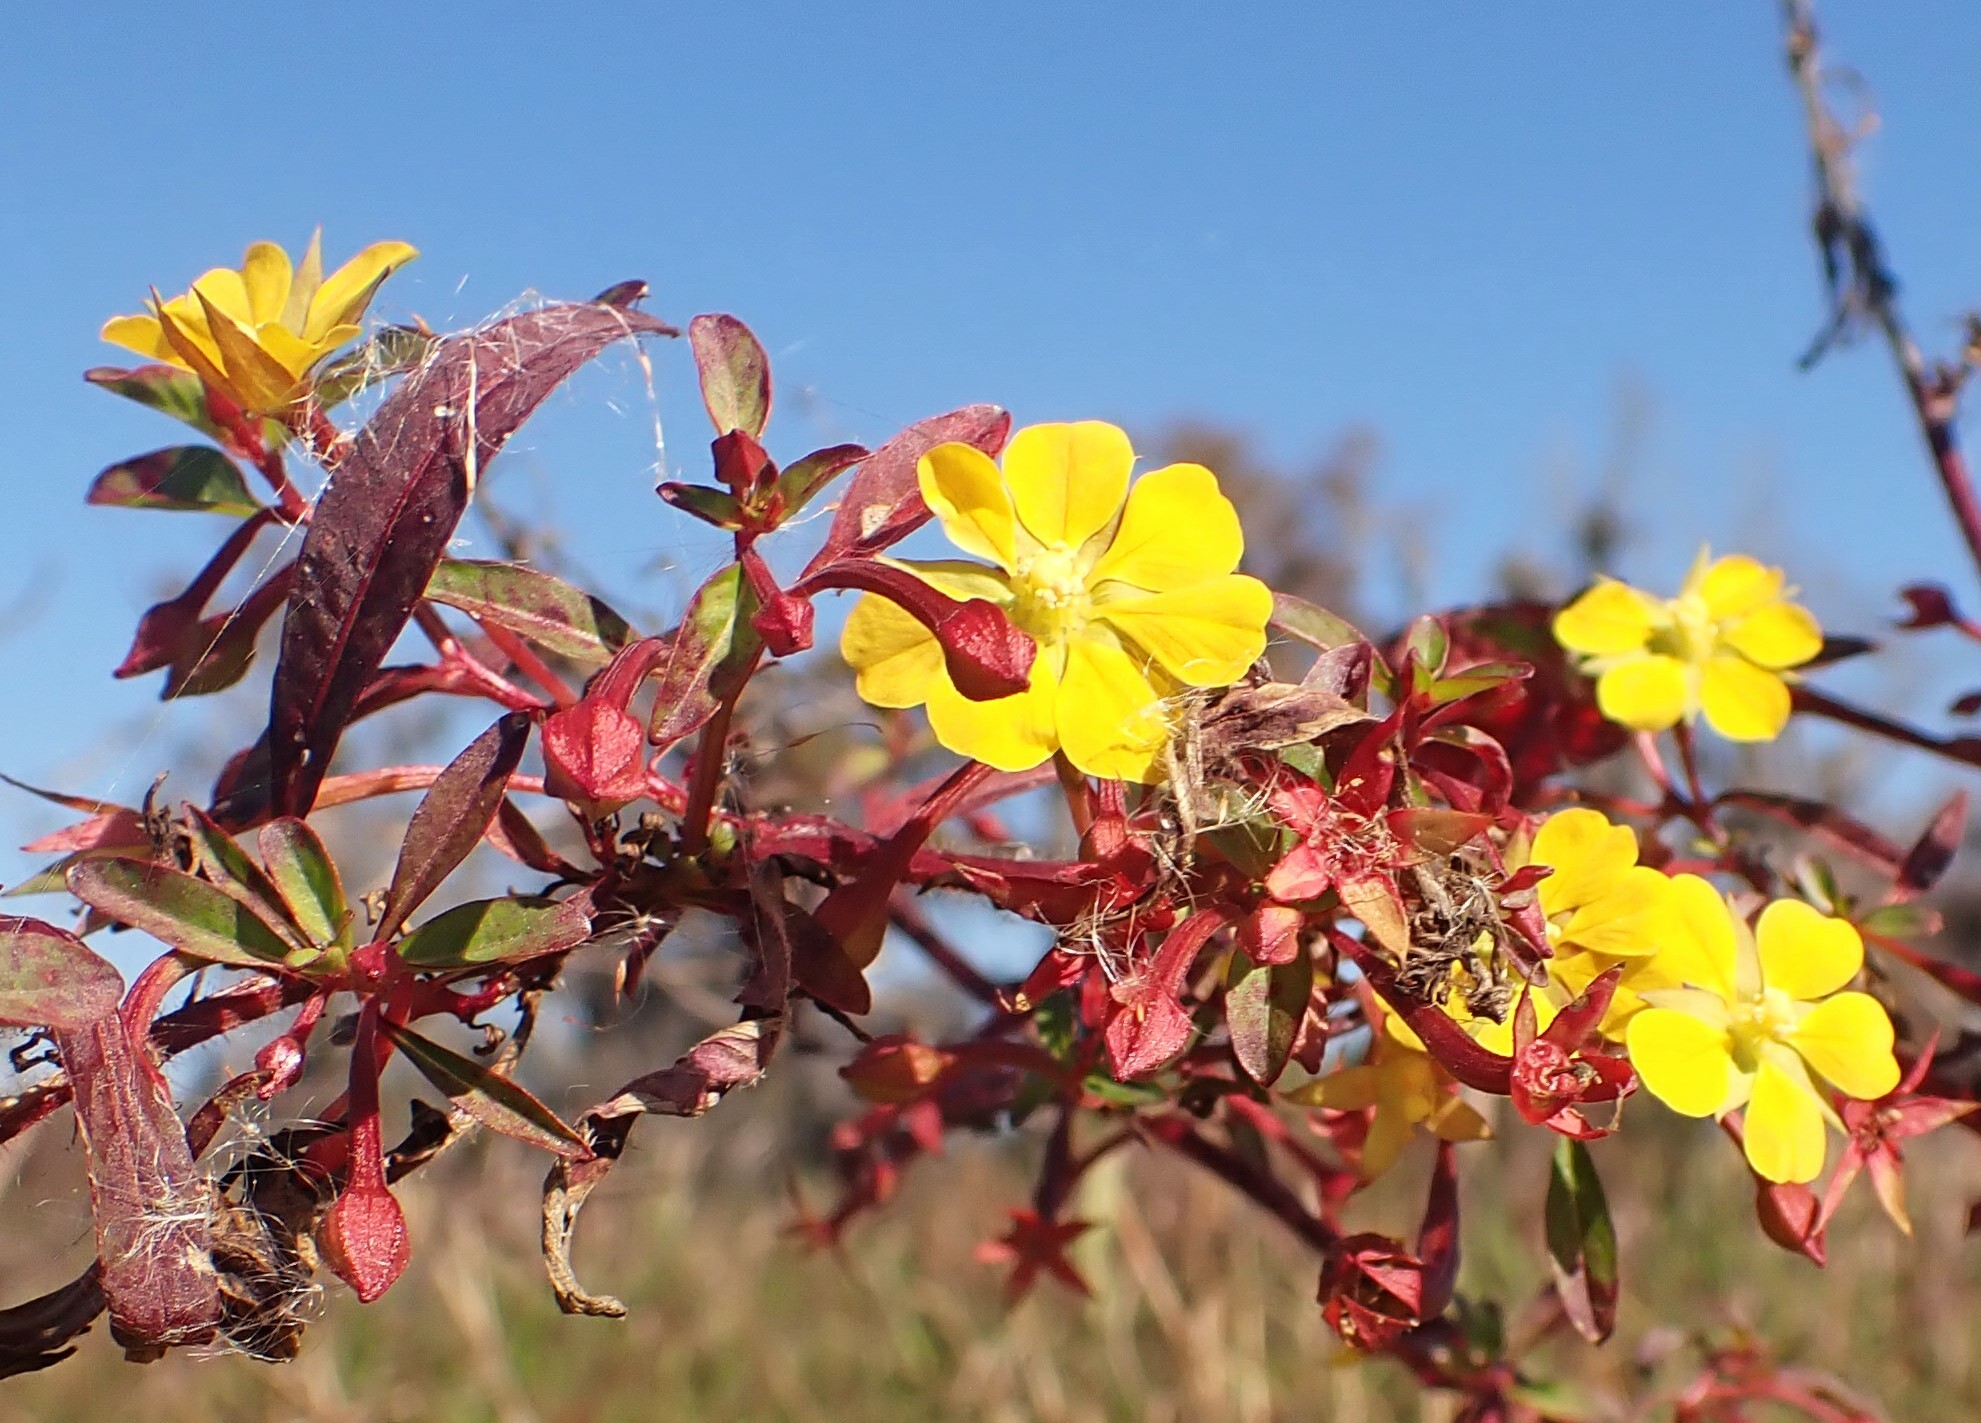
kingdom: Plantae
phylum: Tracheophyta
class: Magnoliopsida
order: Myrtales
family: Onagraceae
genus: Ludwigia
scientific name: Ludwigia leptocarpa
